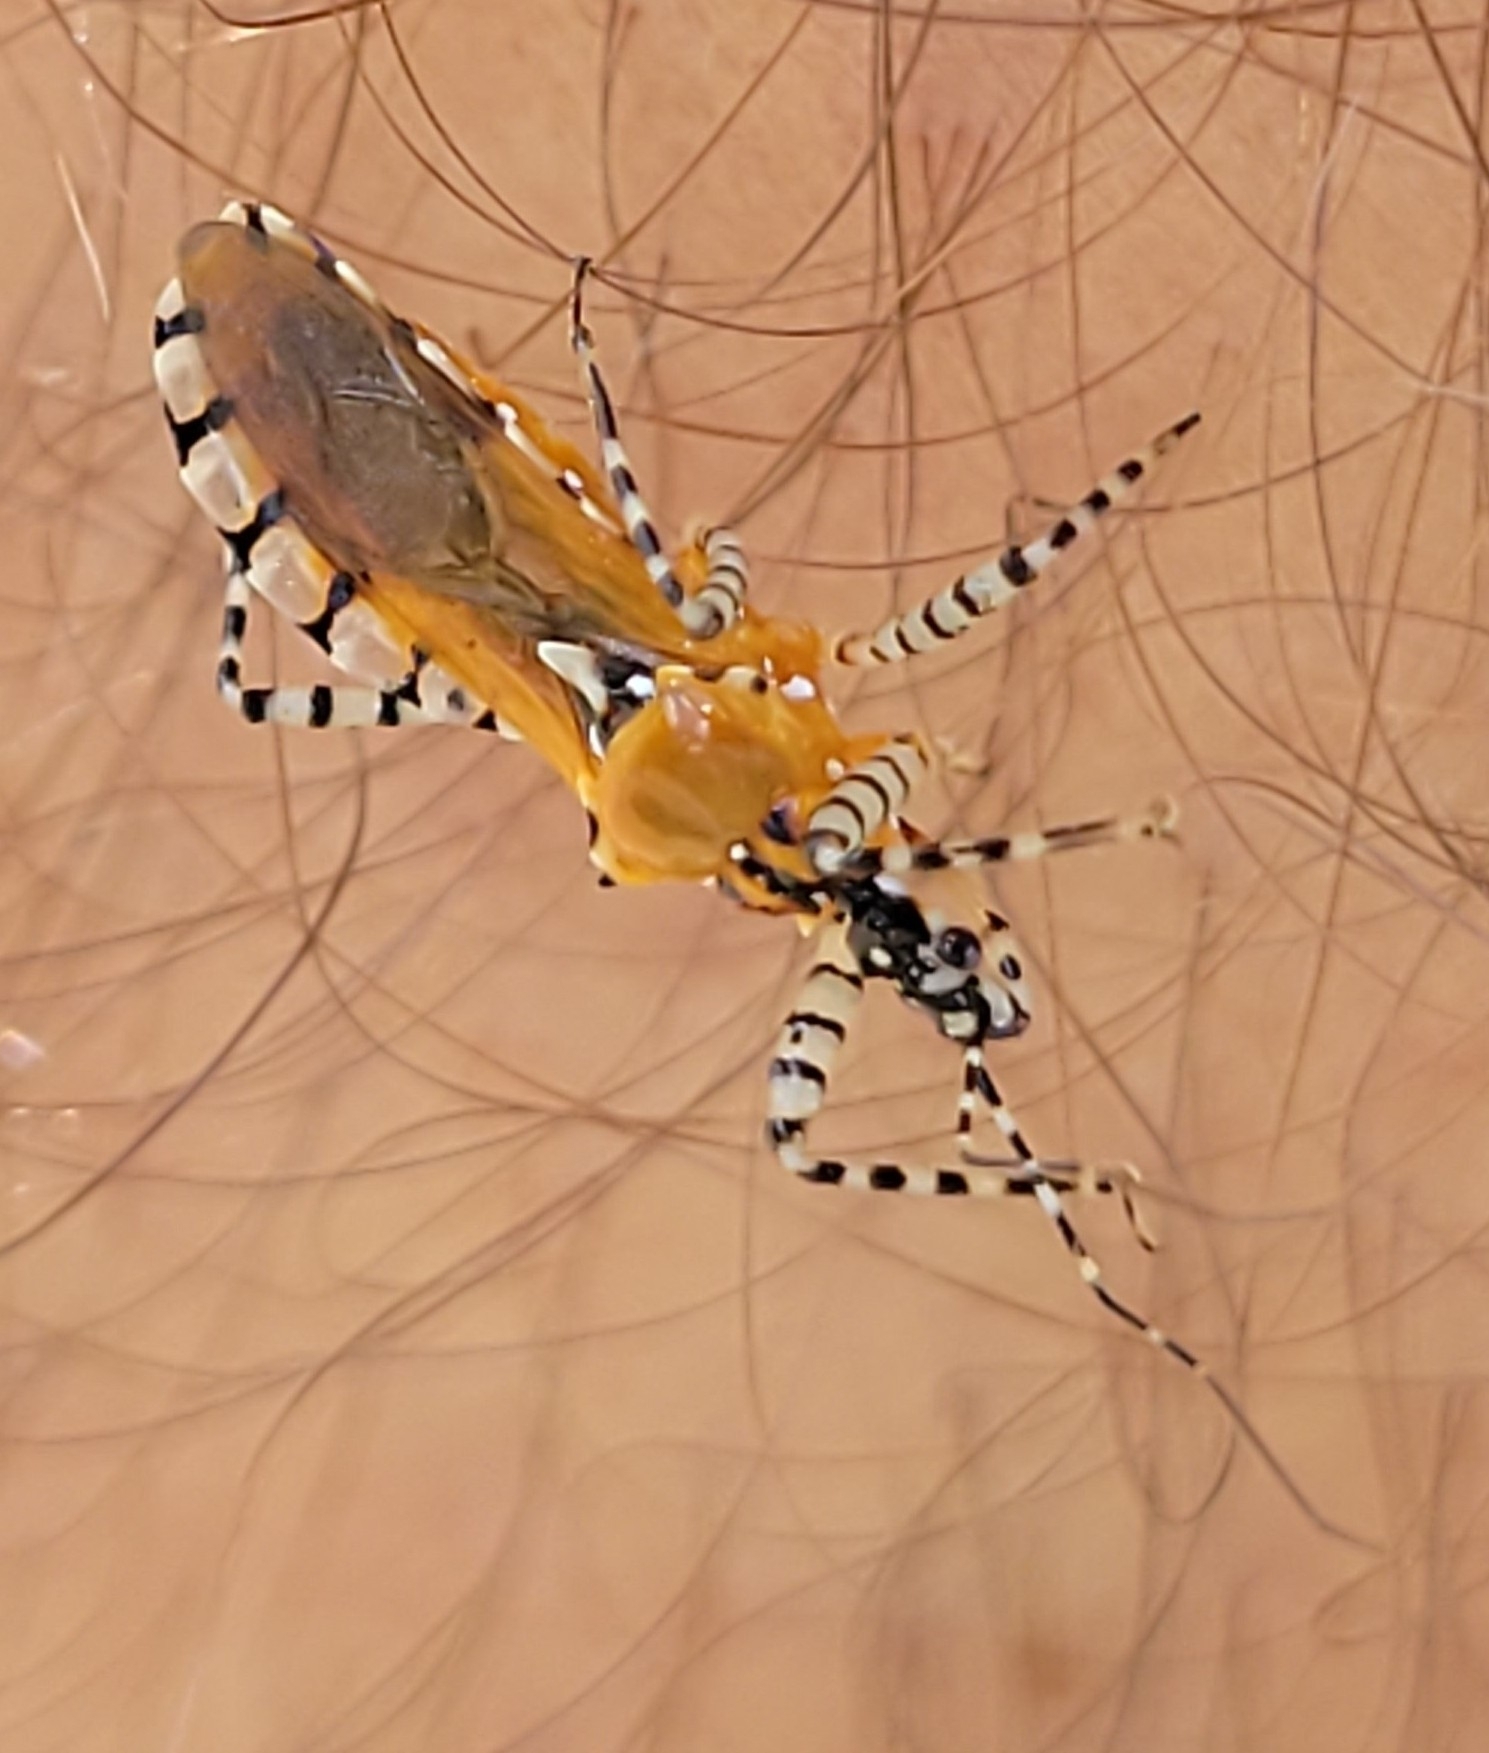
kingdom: Animalia
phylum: Arthropoda
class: Insecta
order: Hemiptera
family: Reduviidae
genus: Pselliopus
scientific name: Pselliopus cinctus
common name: Ringed assassin bug
